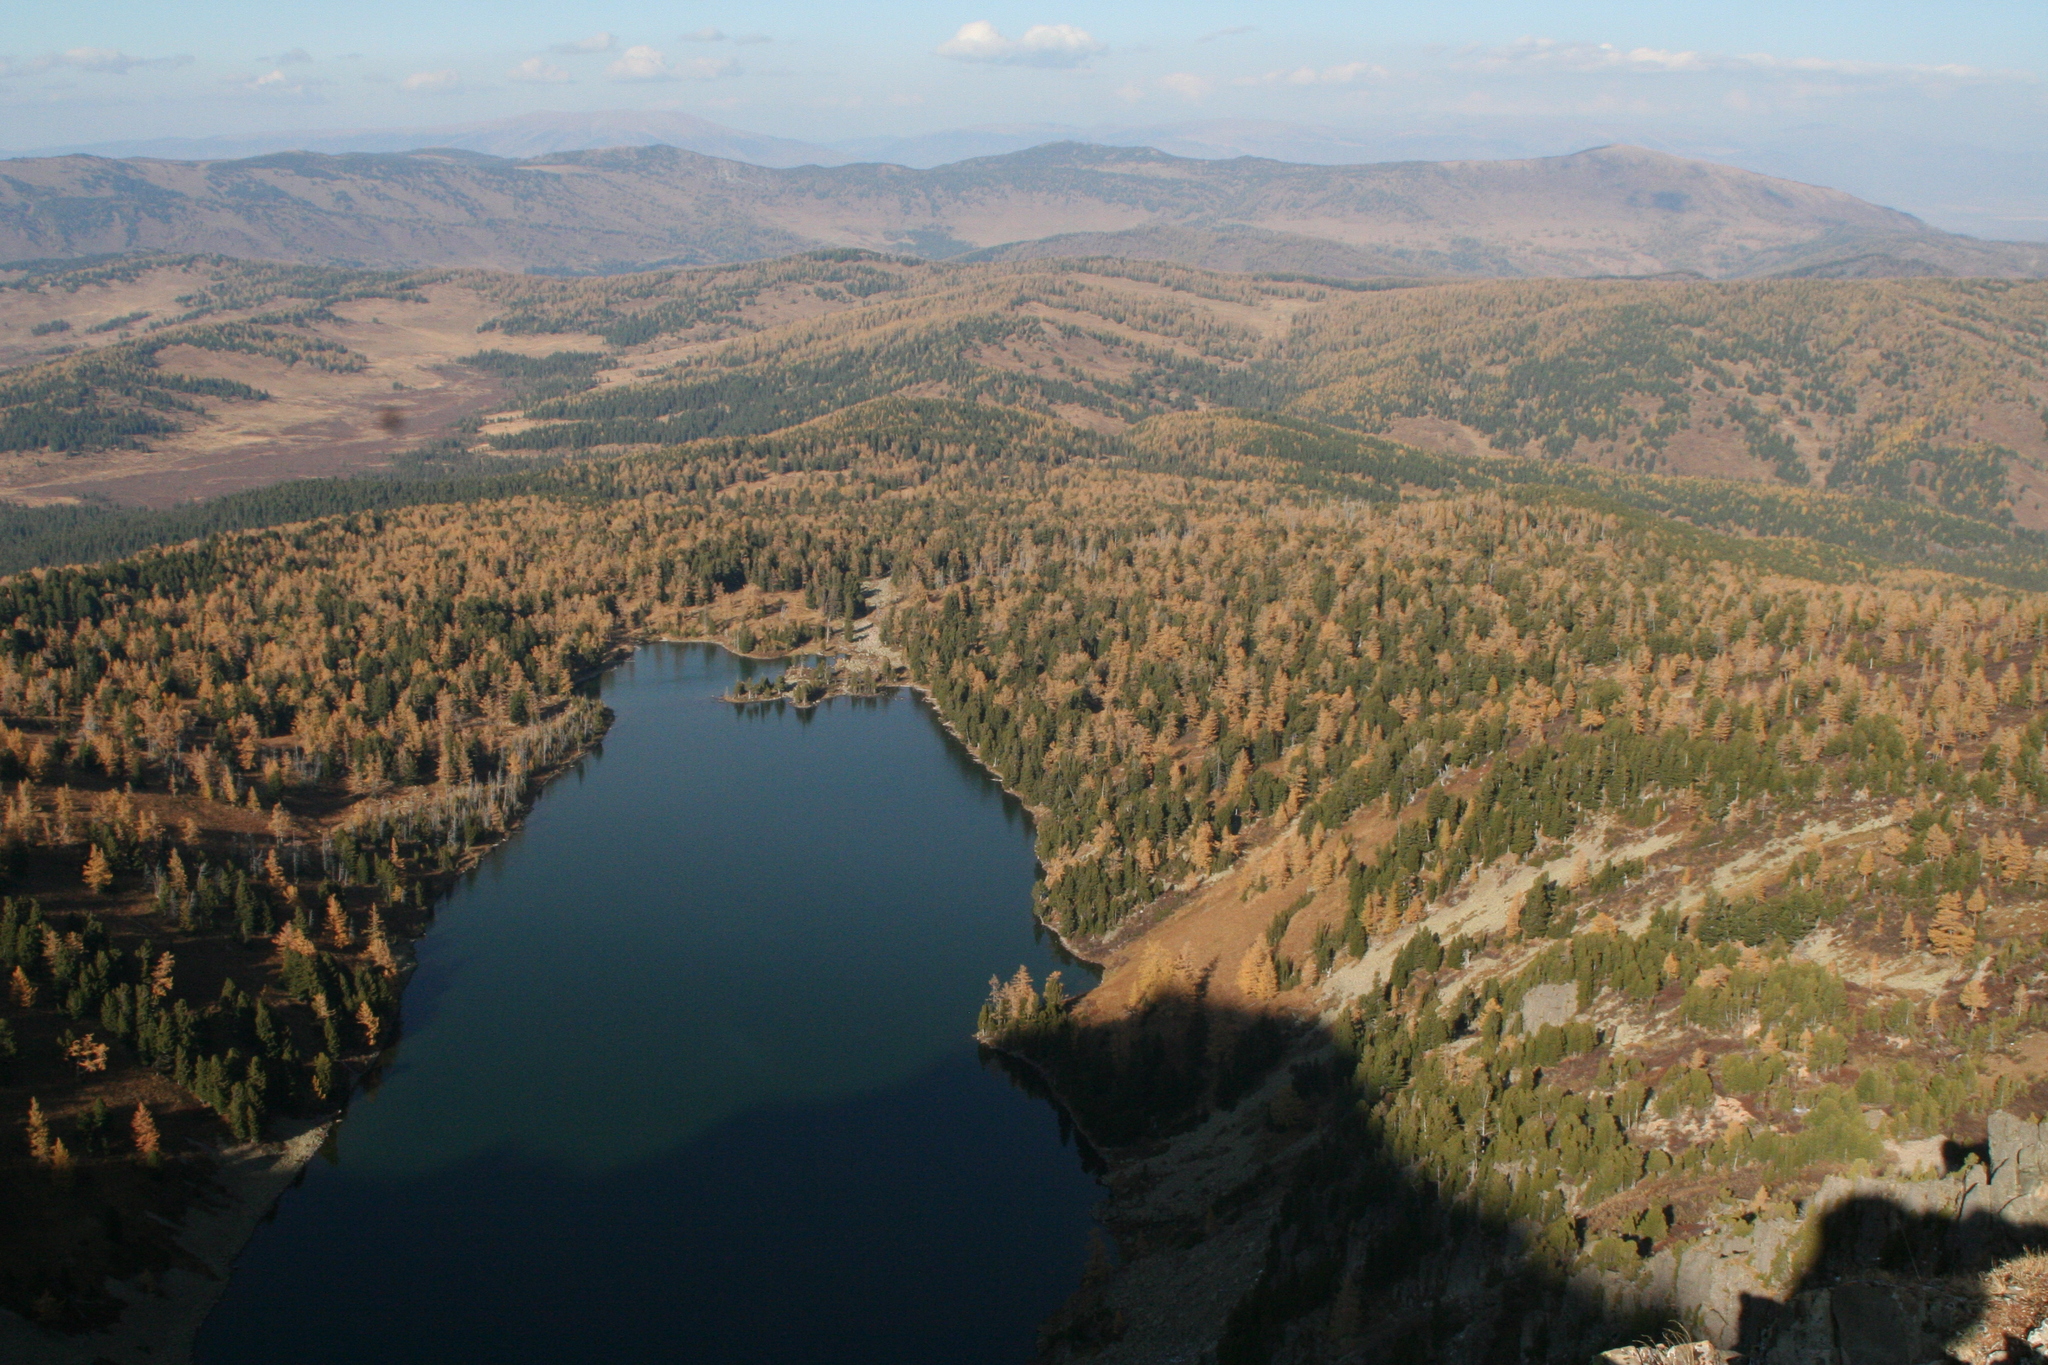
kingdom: Plantae
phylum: Tracheophyta
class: Pinopsida
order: Pinales
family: Pinaceae
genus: Larix
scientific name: Larix sibirica
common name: Siberian larch
